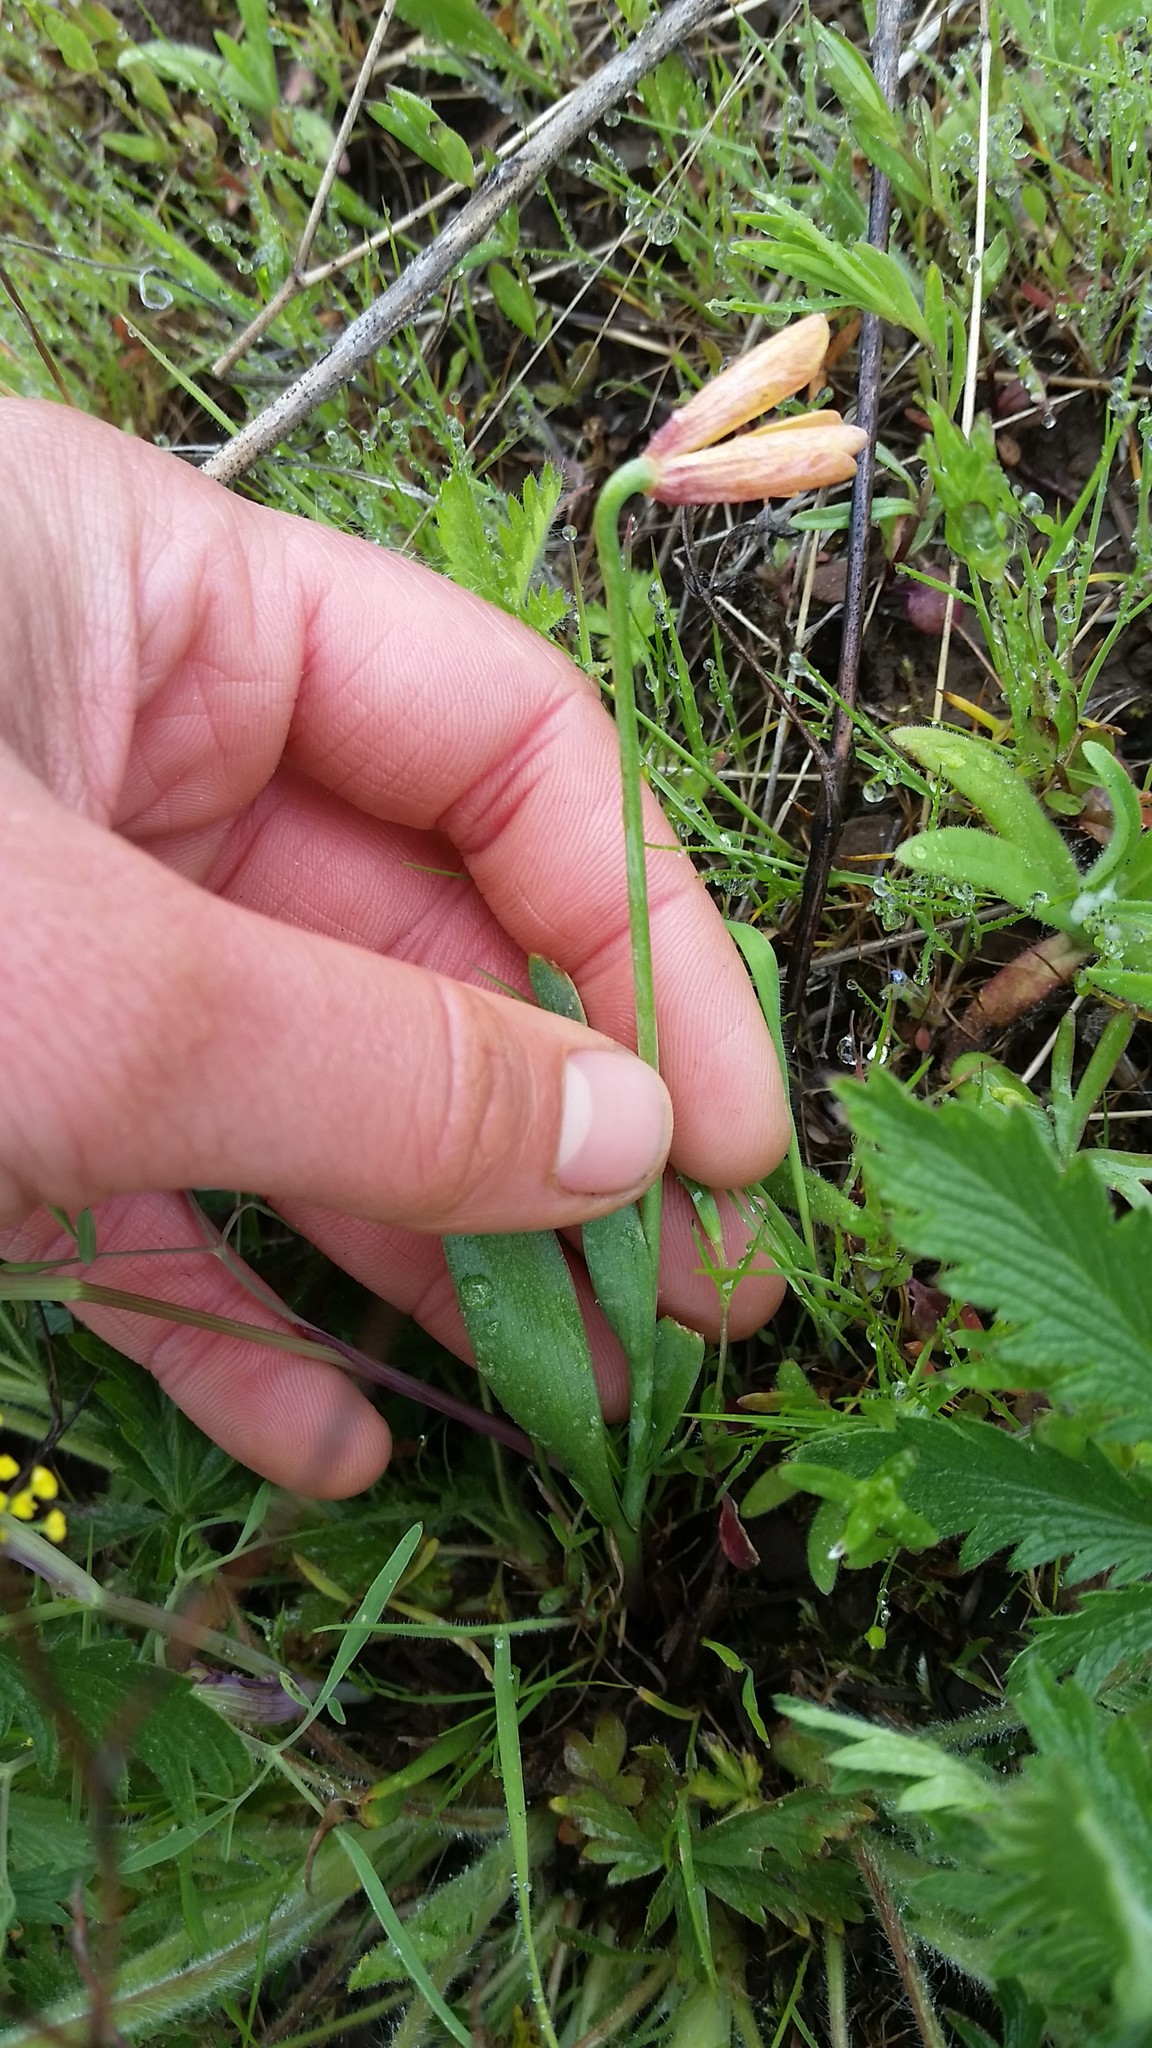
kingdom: Plantae
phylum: Tracheophyta
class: Liliopsida
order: Liliales
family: Liliaceae
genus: Fritillaria
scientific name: Fritillaria pudica
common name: Yellow fritillary
